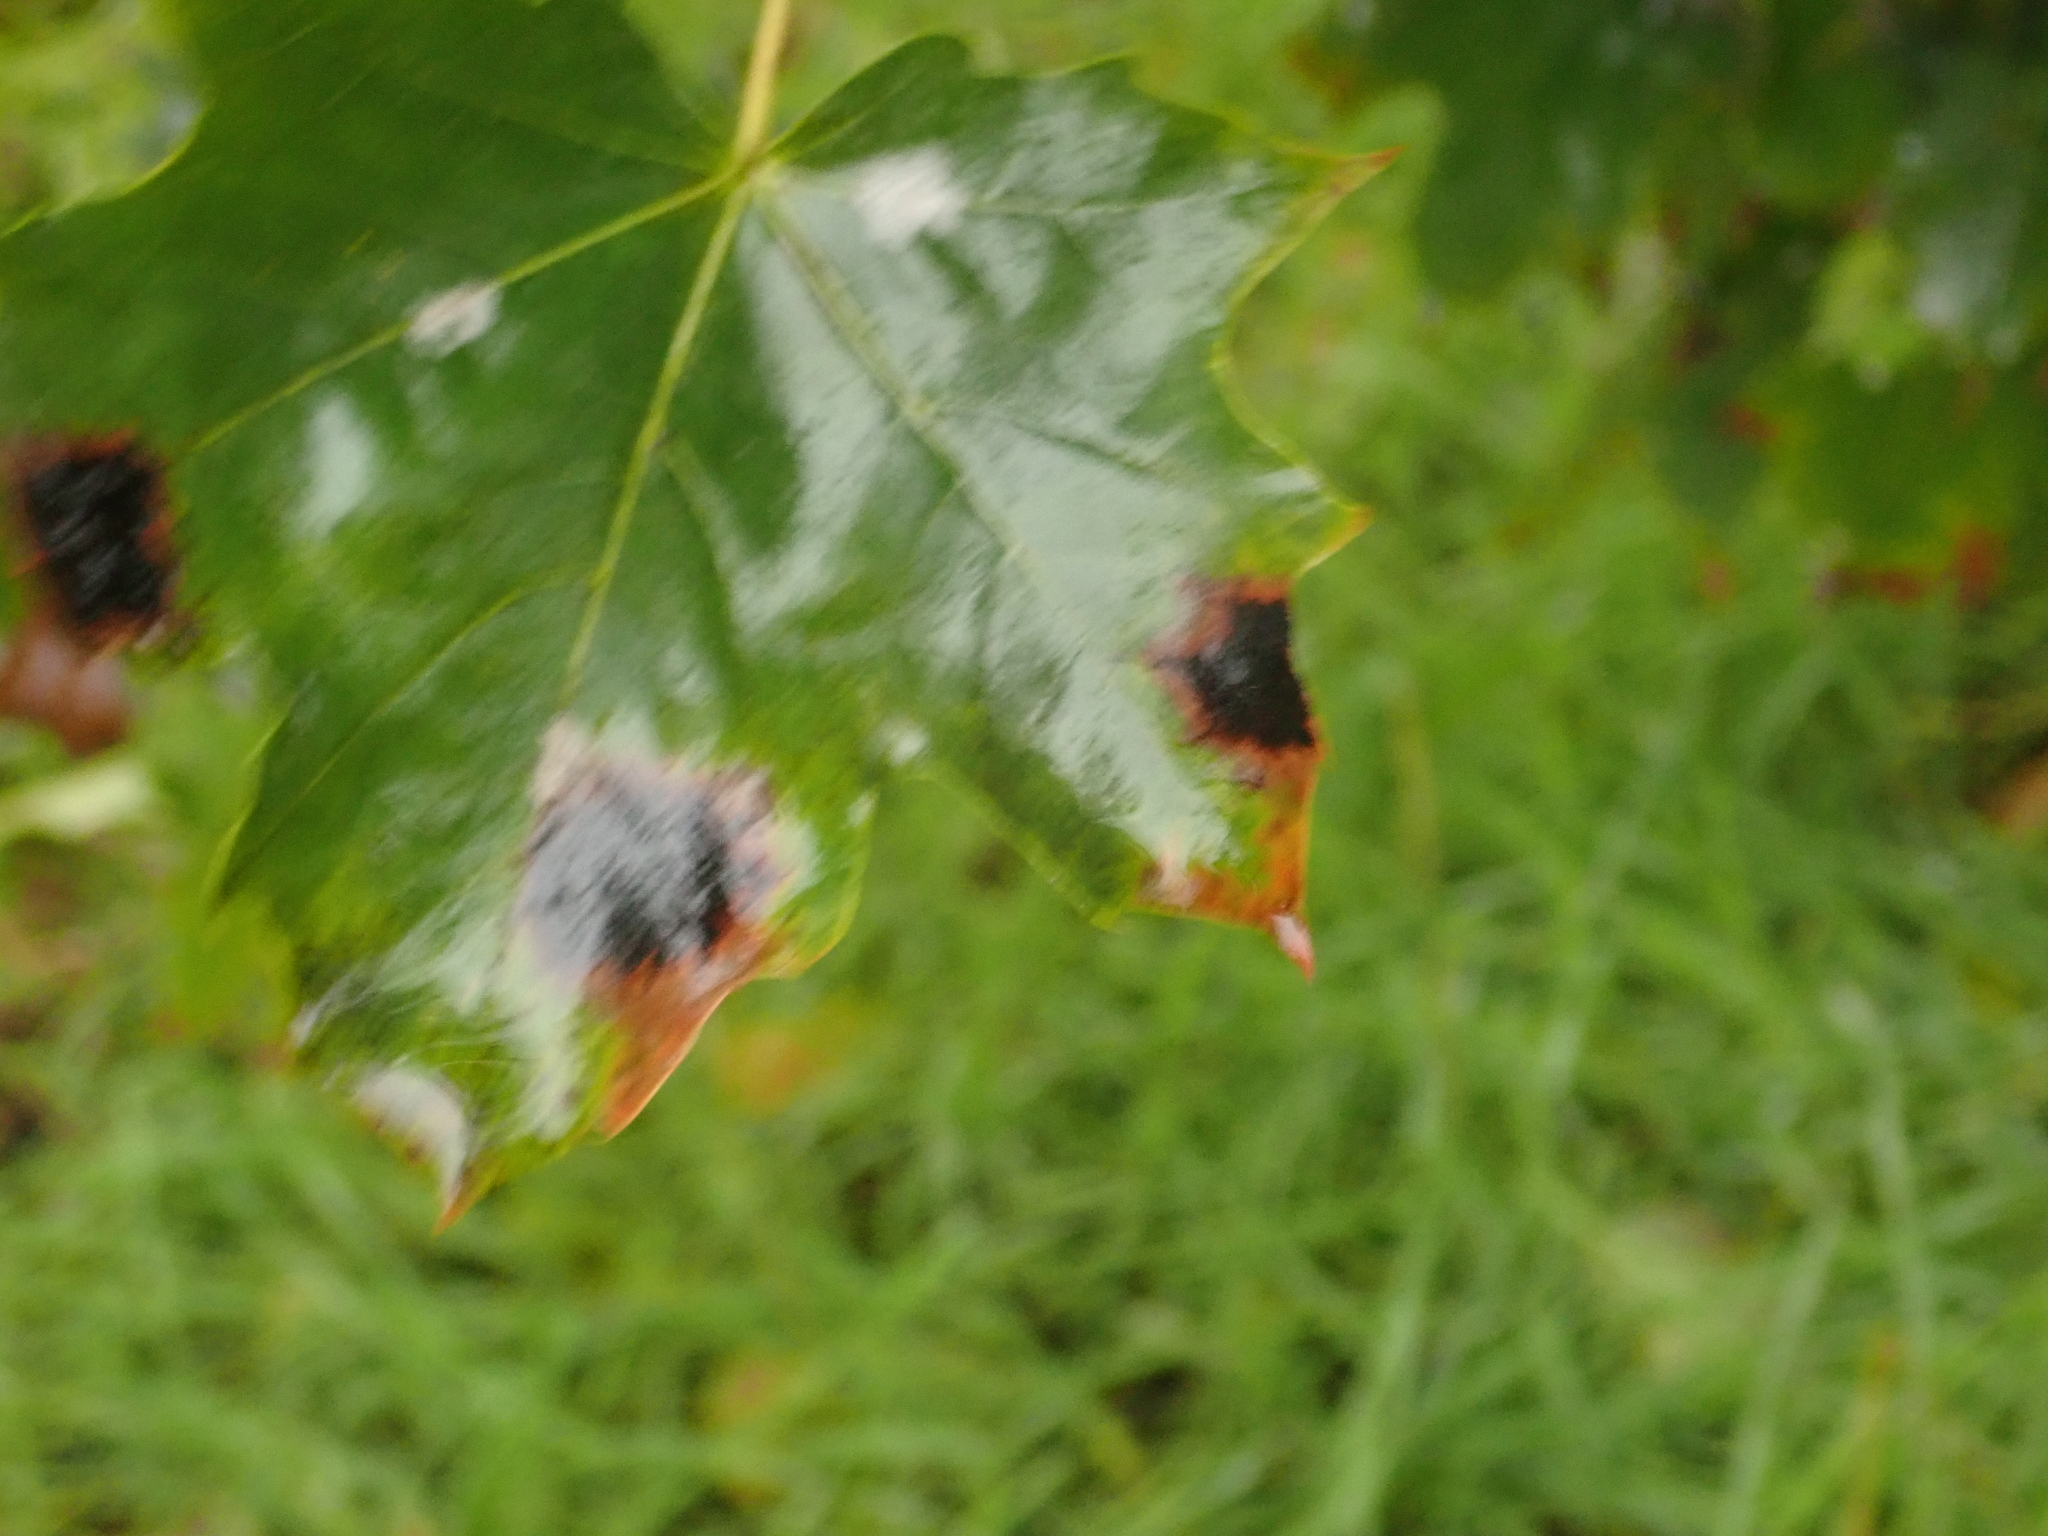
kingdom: Fungi
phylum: Ascomycota
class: Leotiomycetes
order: Rhytismatales
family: Rhytismataceae
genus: Rhytisma
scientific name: Rhytisma acerinum
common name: European tar spot
